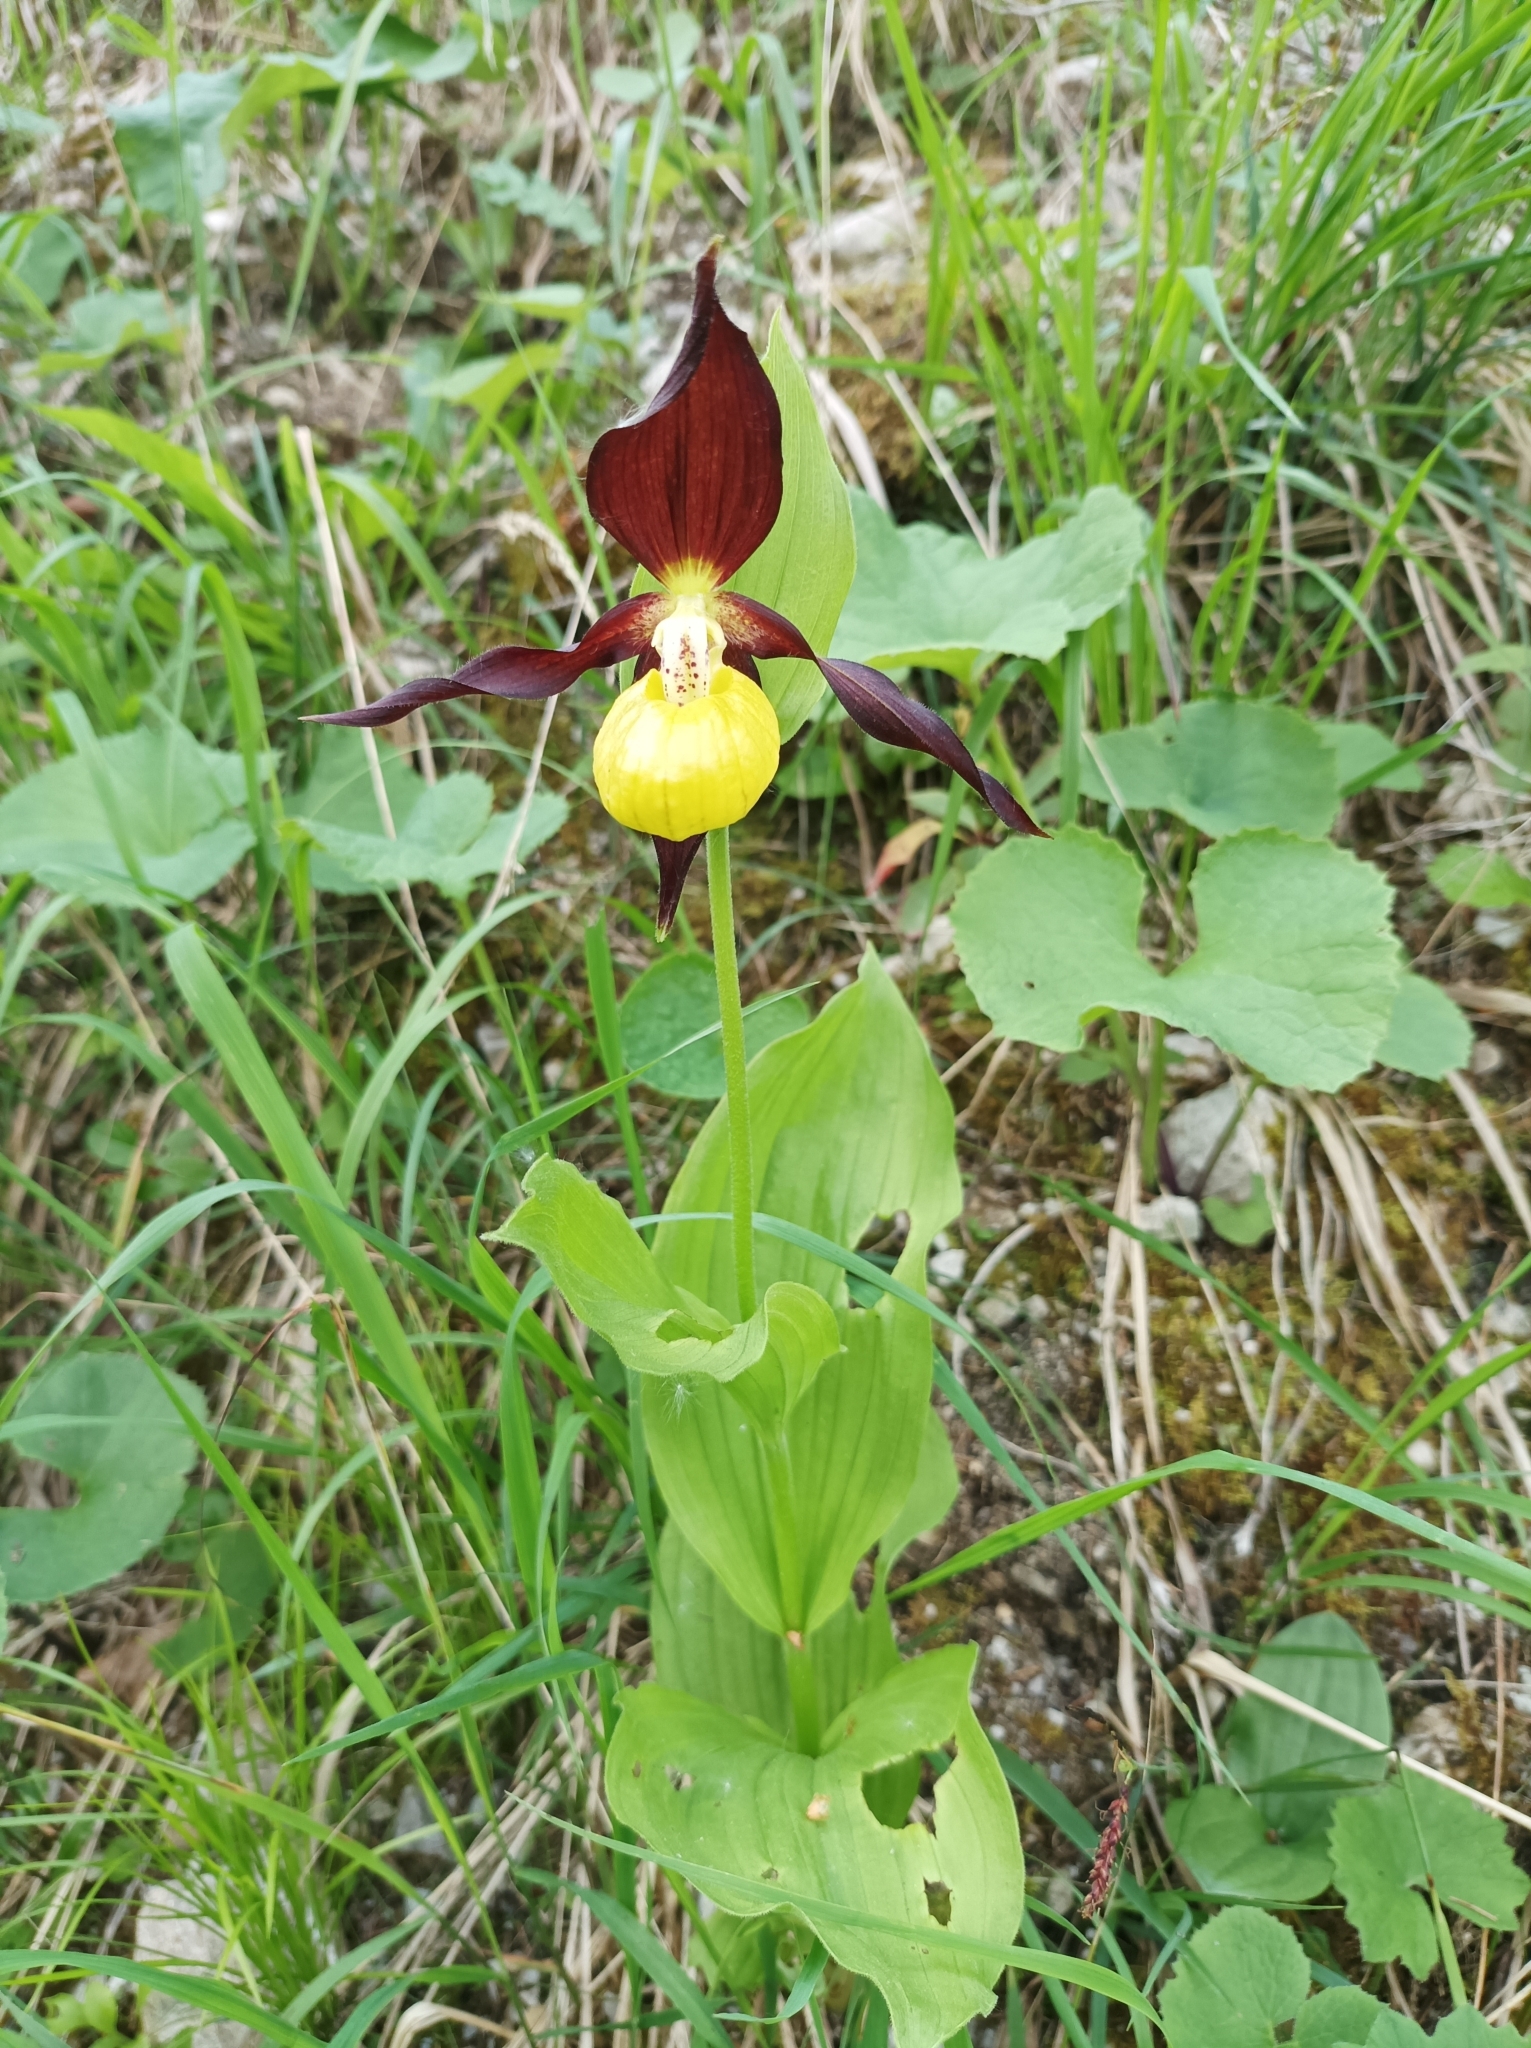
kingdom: Plantae
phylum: Tracheophyta
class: Liliopsida
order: Asparagales
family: Orchidaceae
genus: Cypripedium
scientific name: Cypripedium calceolus
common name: Lady's-slipper
